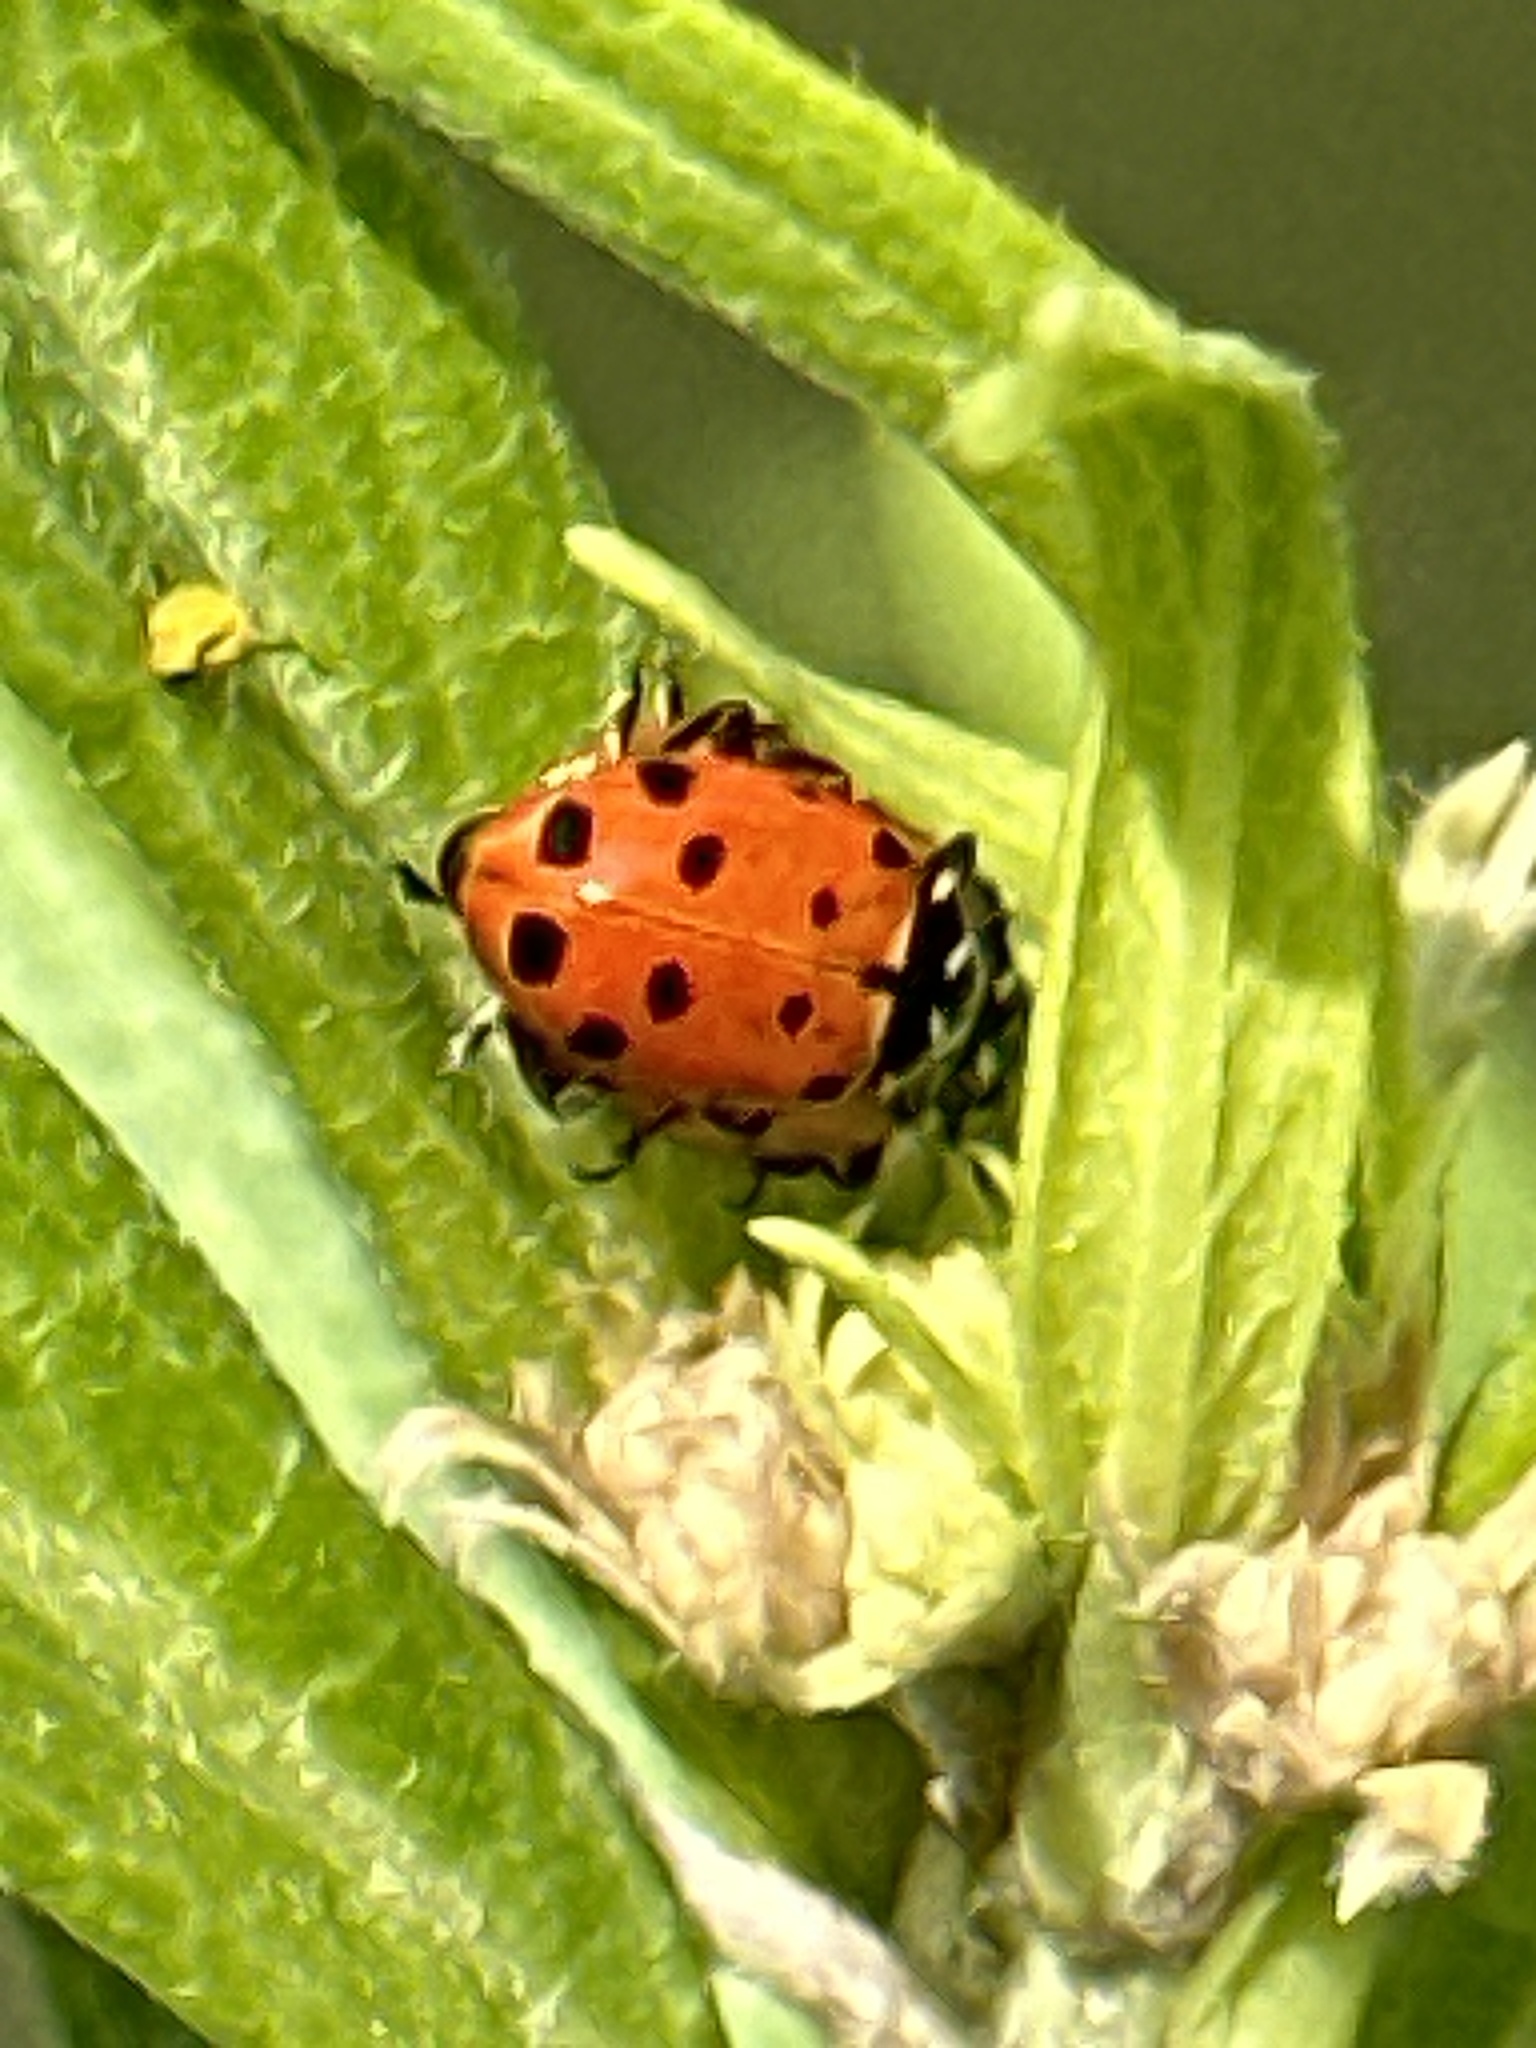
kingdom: Animalia
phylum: Arthropoda
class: Insecta
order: Coleoptera
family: Coccinellidae
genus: Hippodamia
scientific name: Hippodamia convergens
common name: Convergent lady beetle
